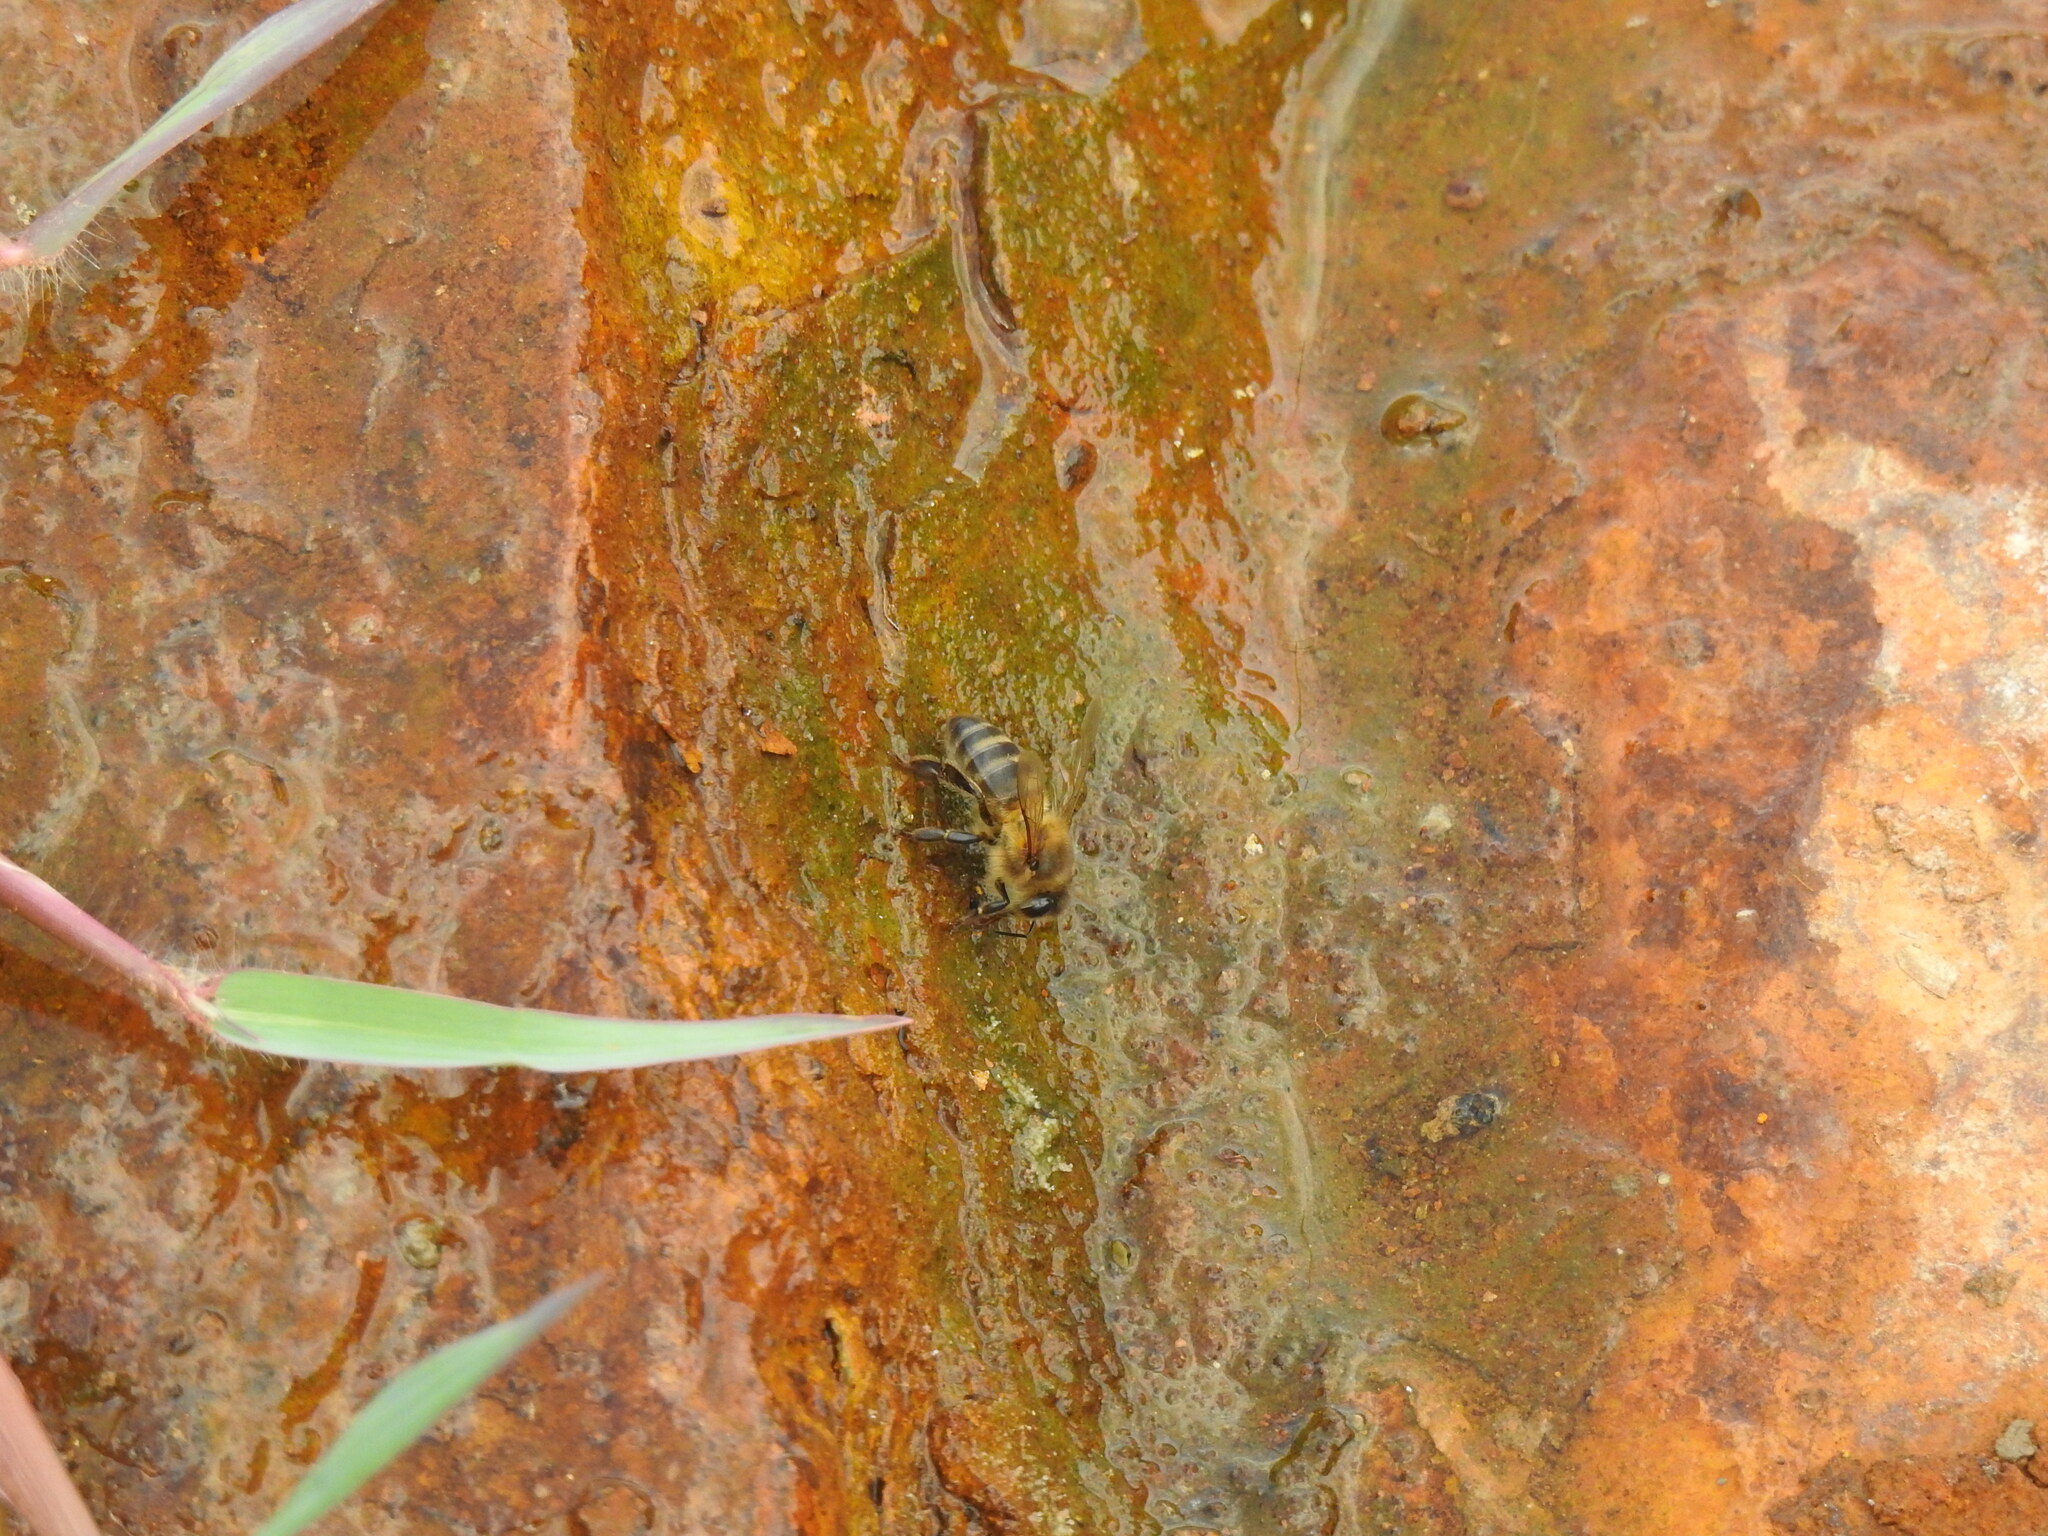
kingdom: Animalia
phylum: Arthropoda
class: Insecta
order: Hymenoptera
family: Apidae
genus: Apis
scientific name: Apis mellifera
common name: Honey bee
